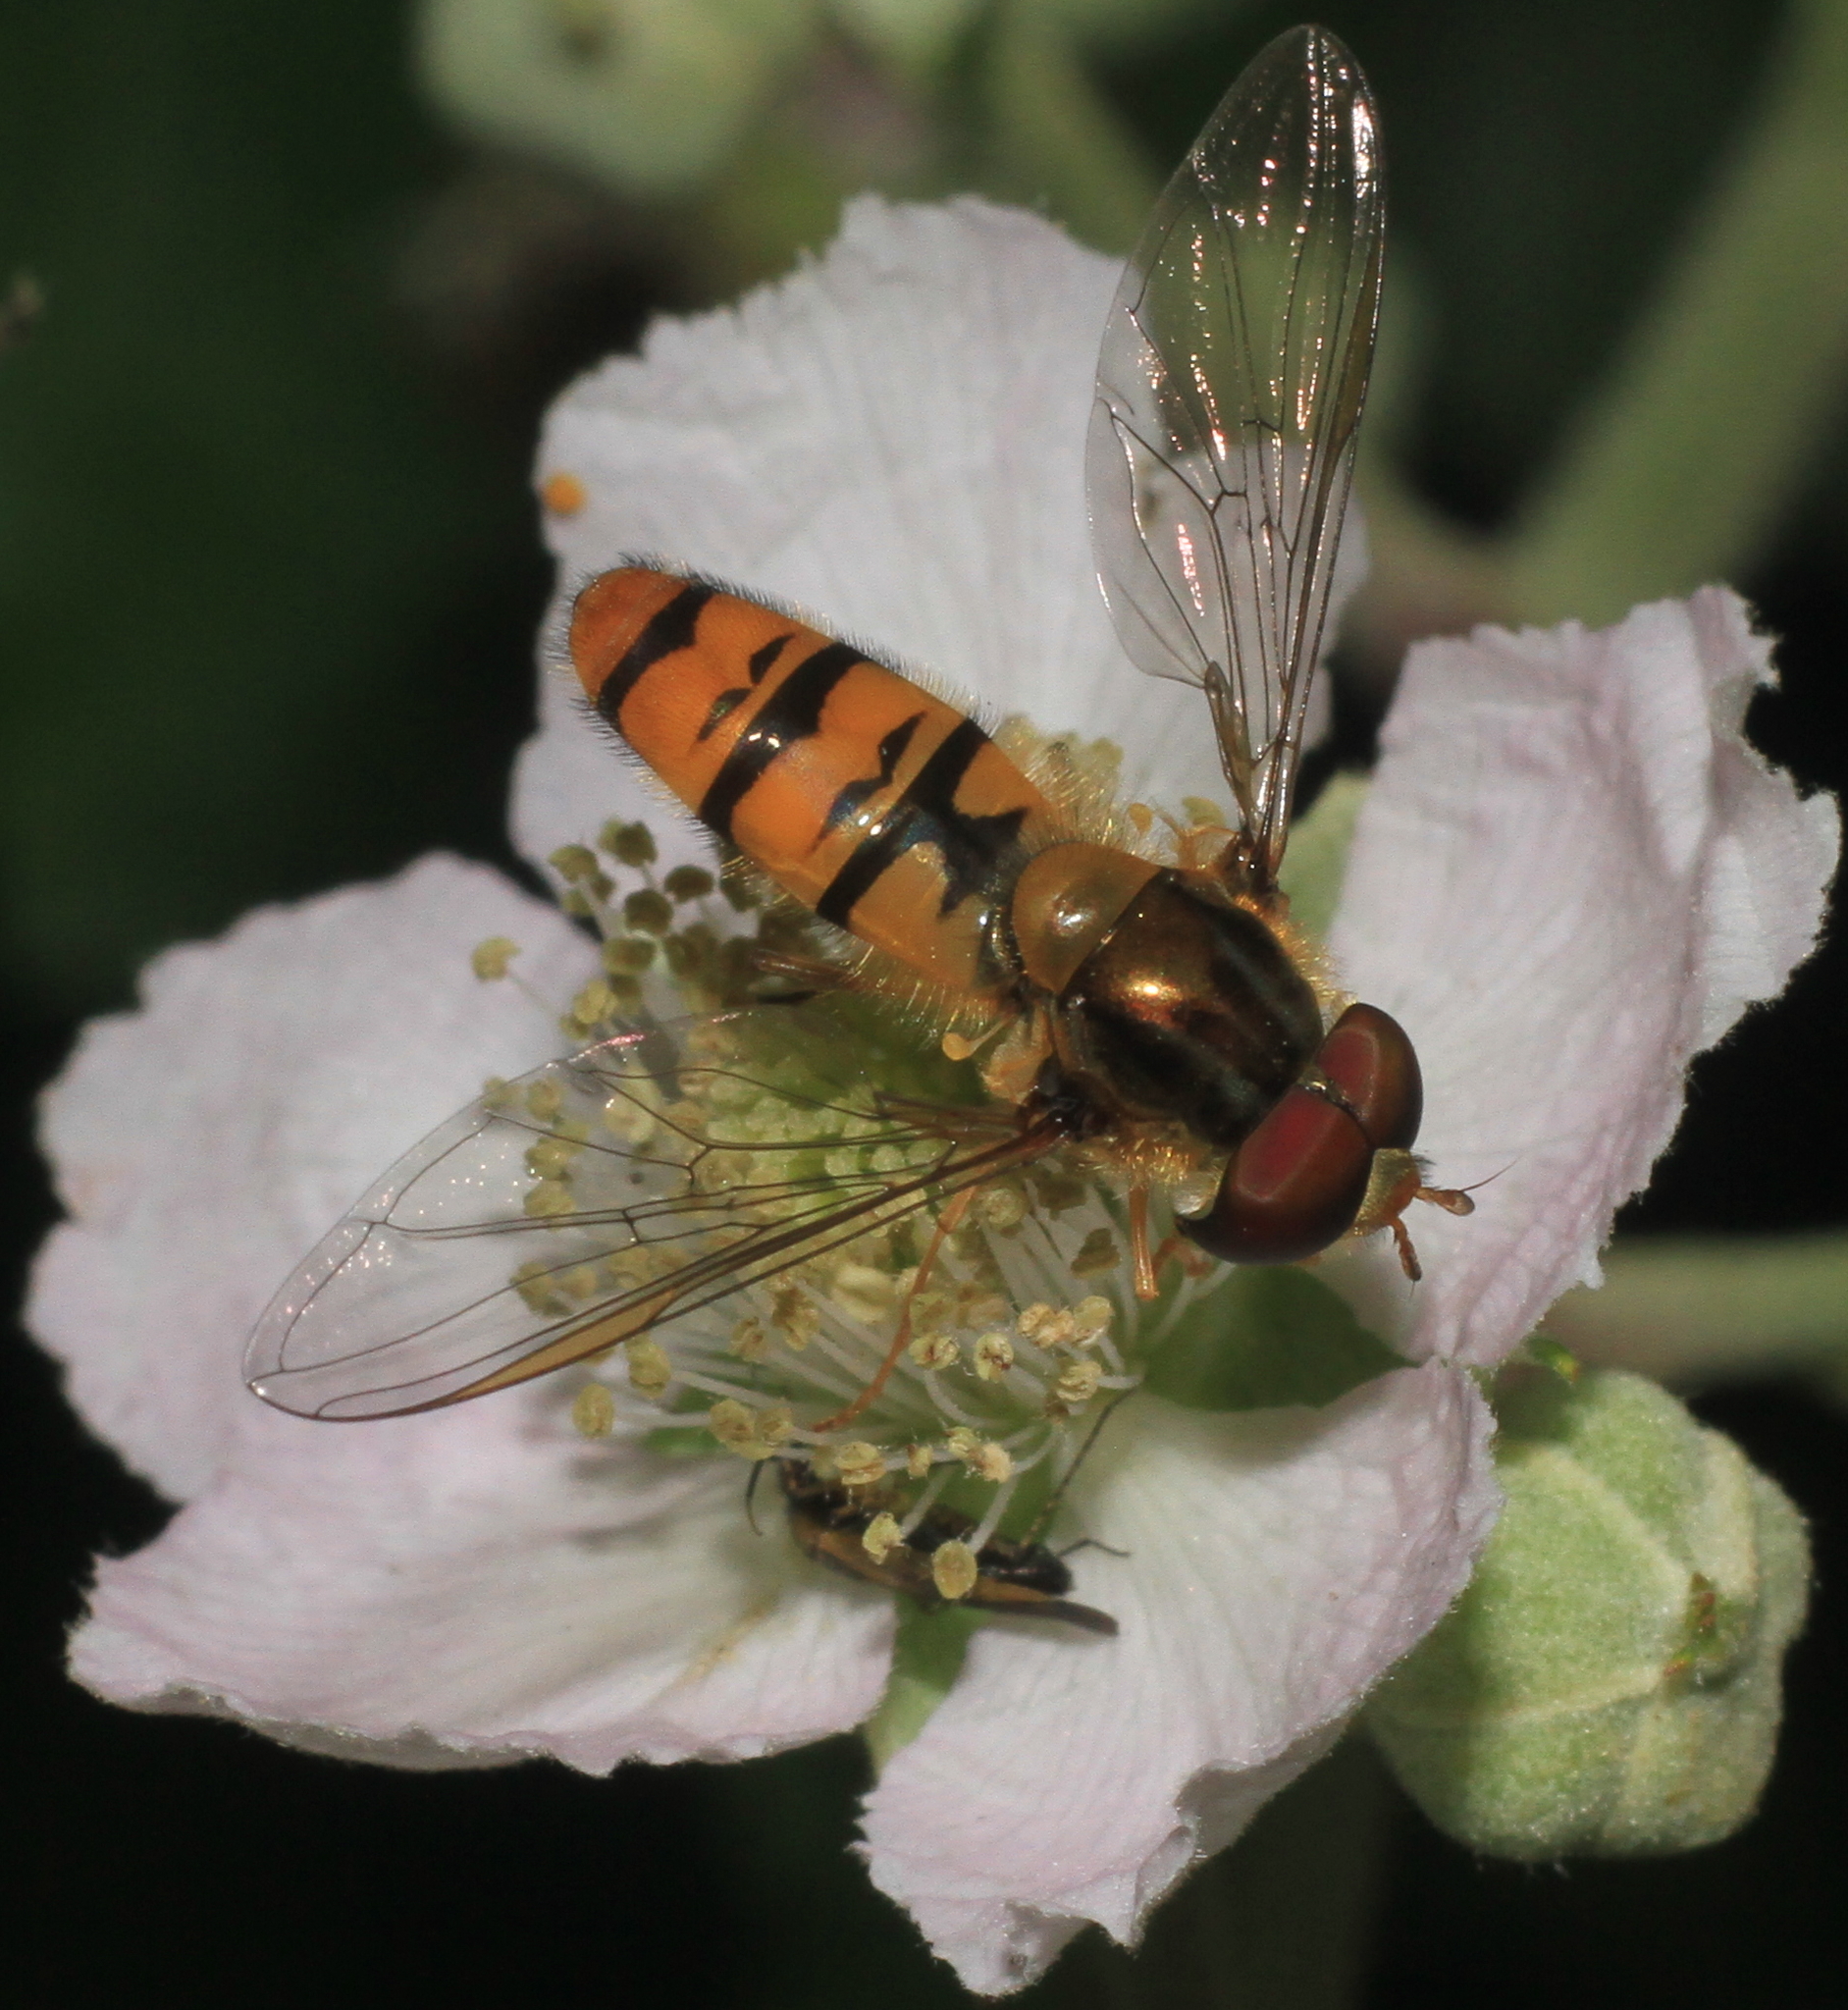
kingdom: Animalia
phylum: Arthropoda
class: Insecta
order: Diptera
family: Syrphidae
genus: Episyrphus
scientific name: Episyrphus balteatus
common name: Marmalade hoverfly
